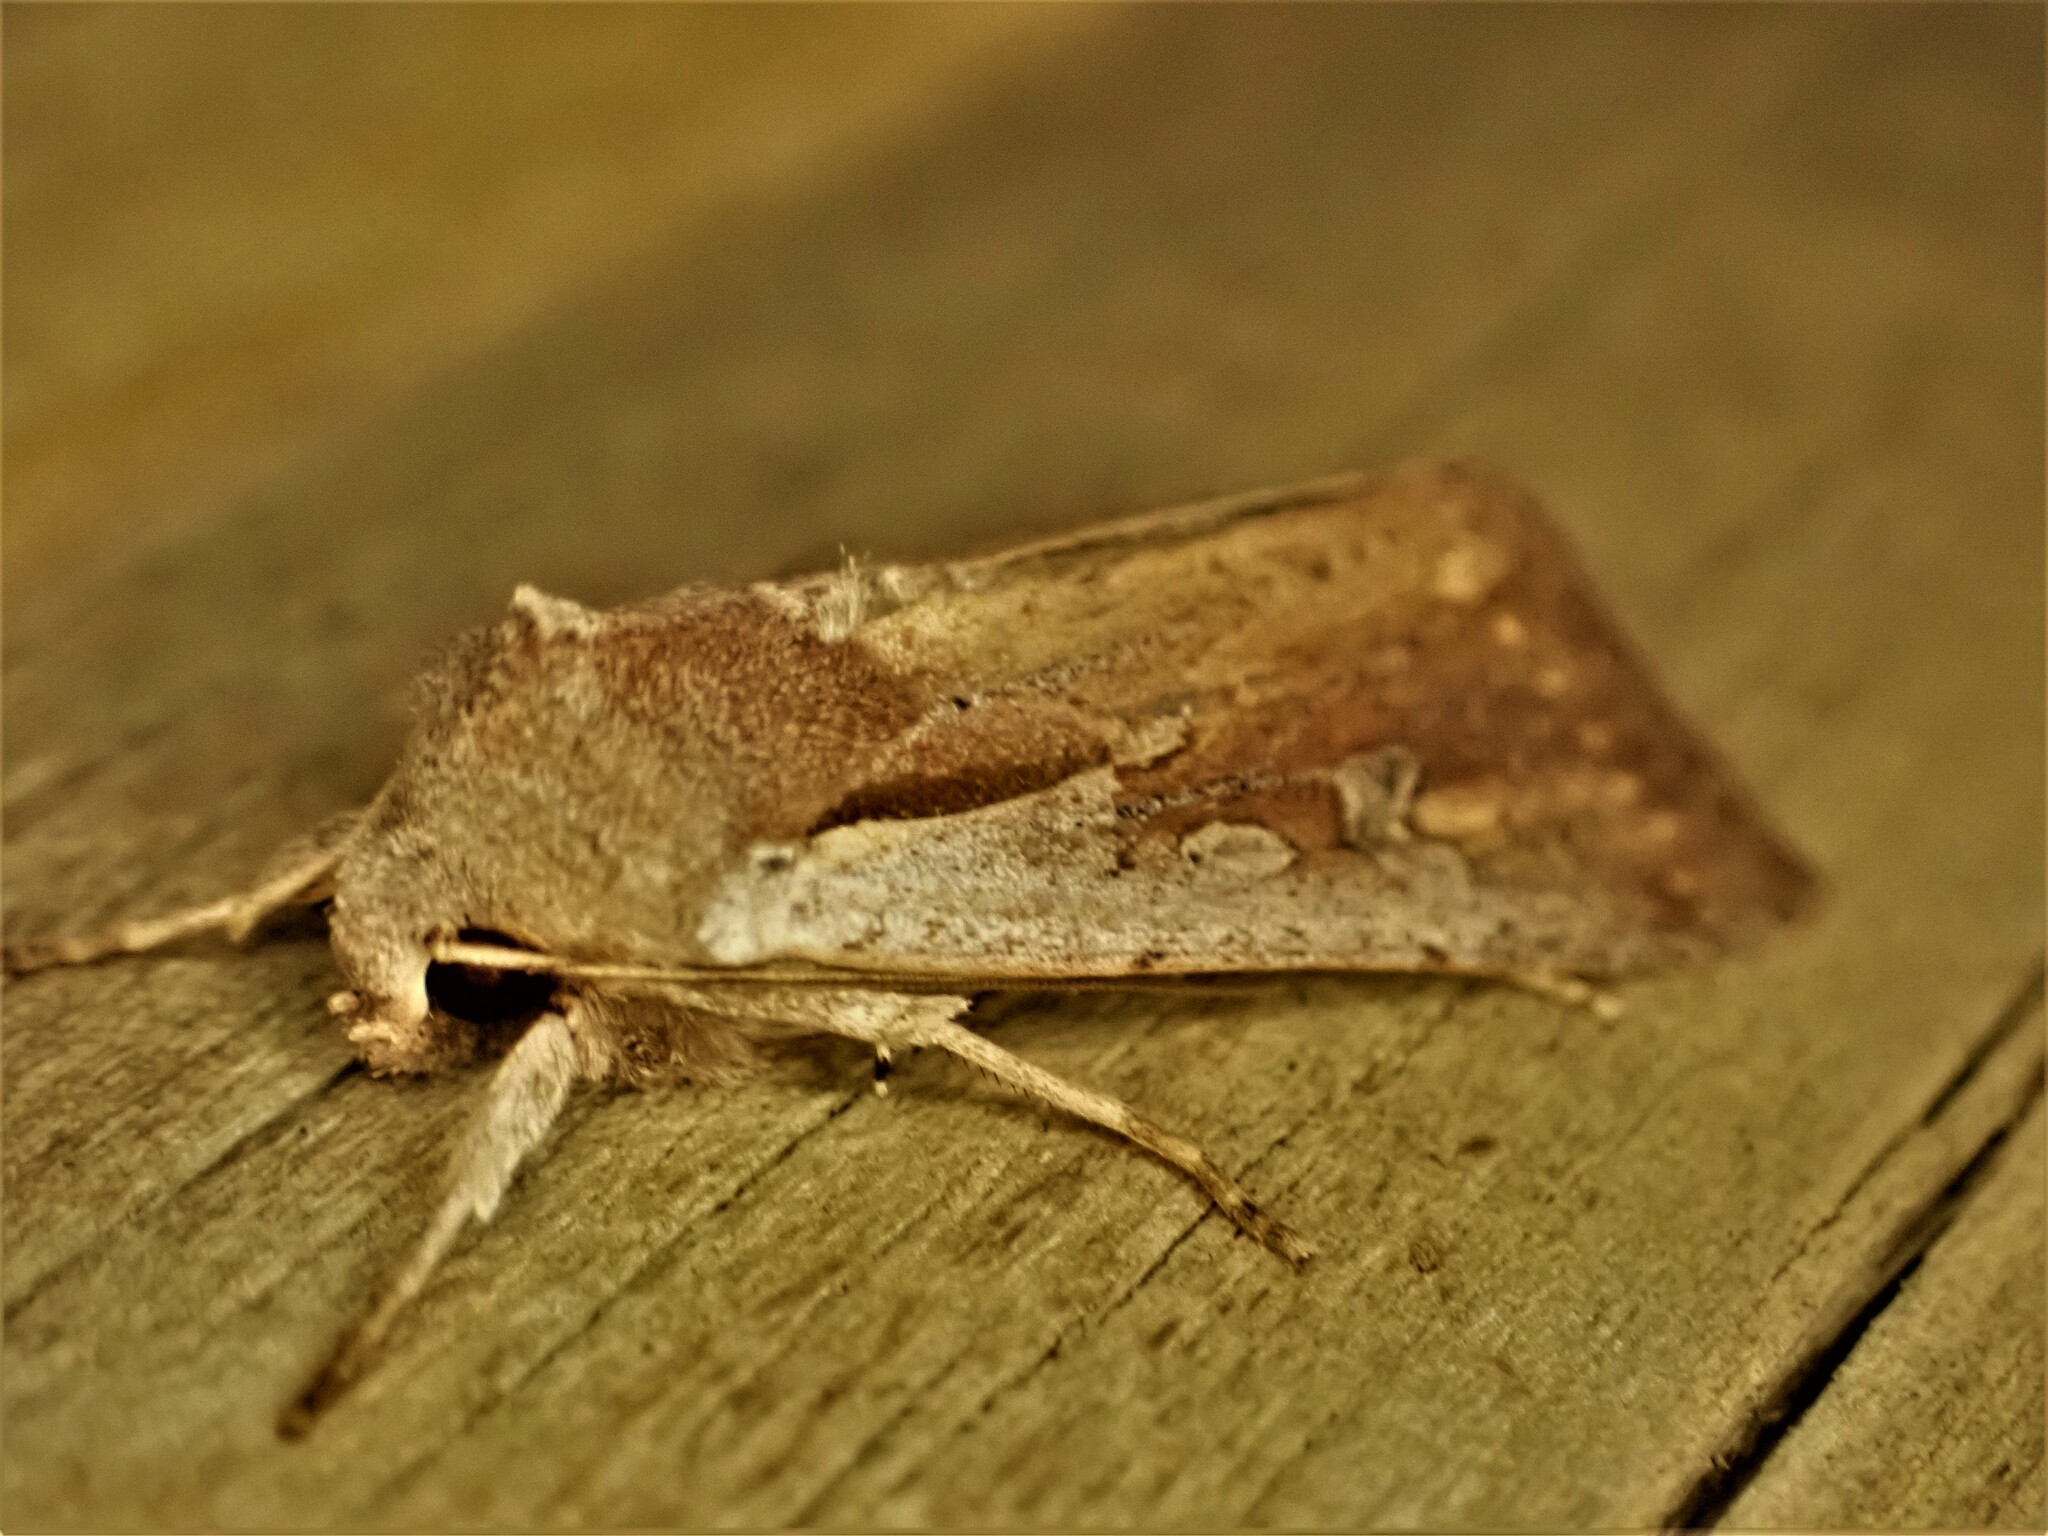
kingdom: Animalia
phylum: Arthropoda
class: Insecta
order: Lepidoptera
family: Noctuidae
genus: Ichneutica
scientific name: Ichneutica atristriga
